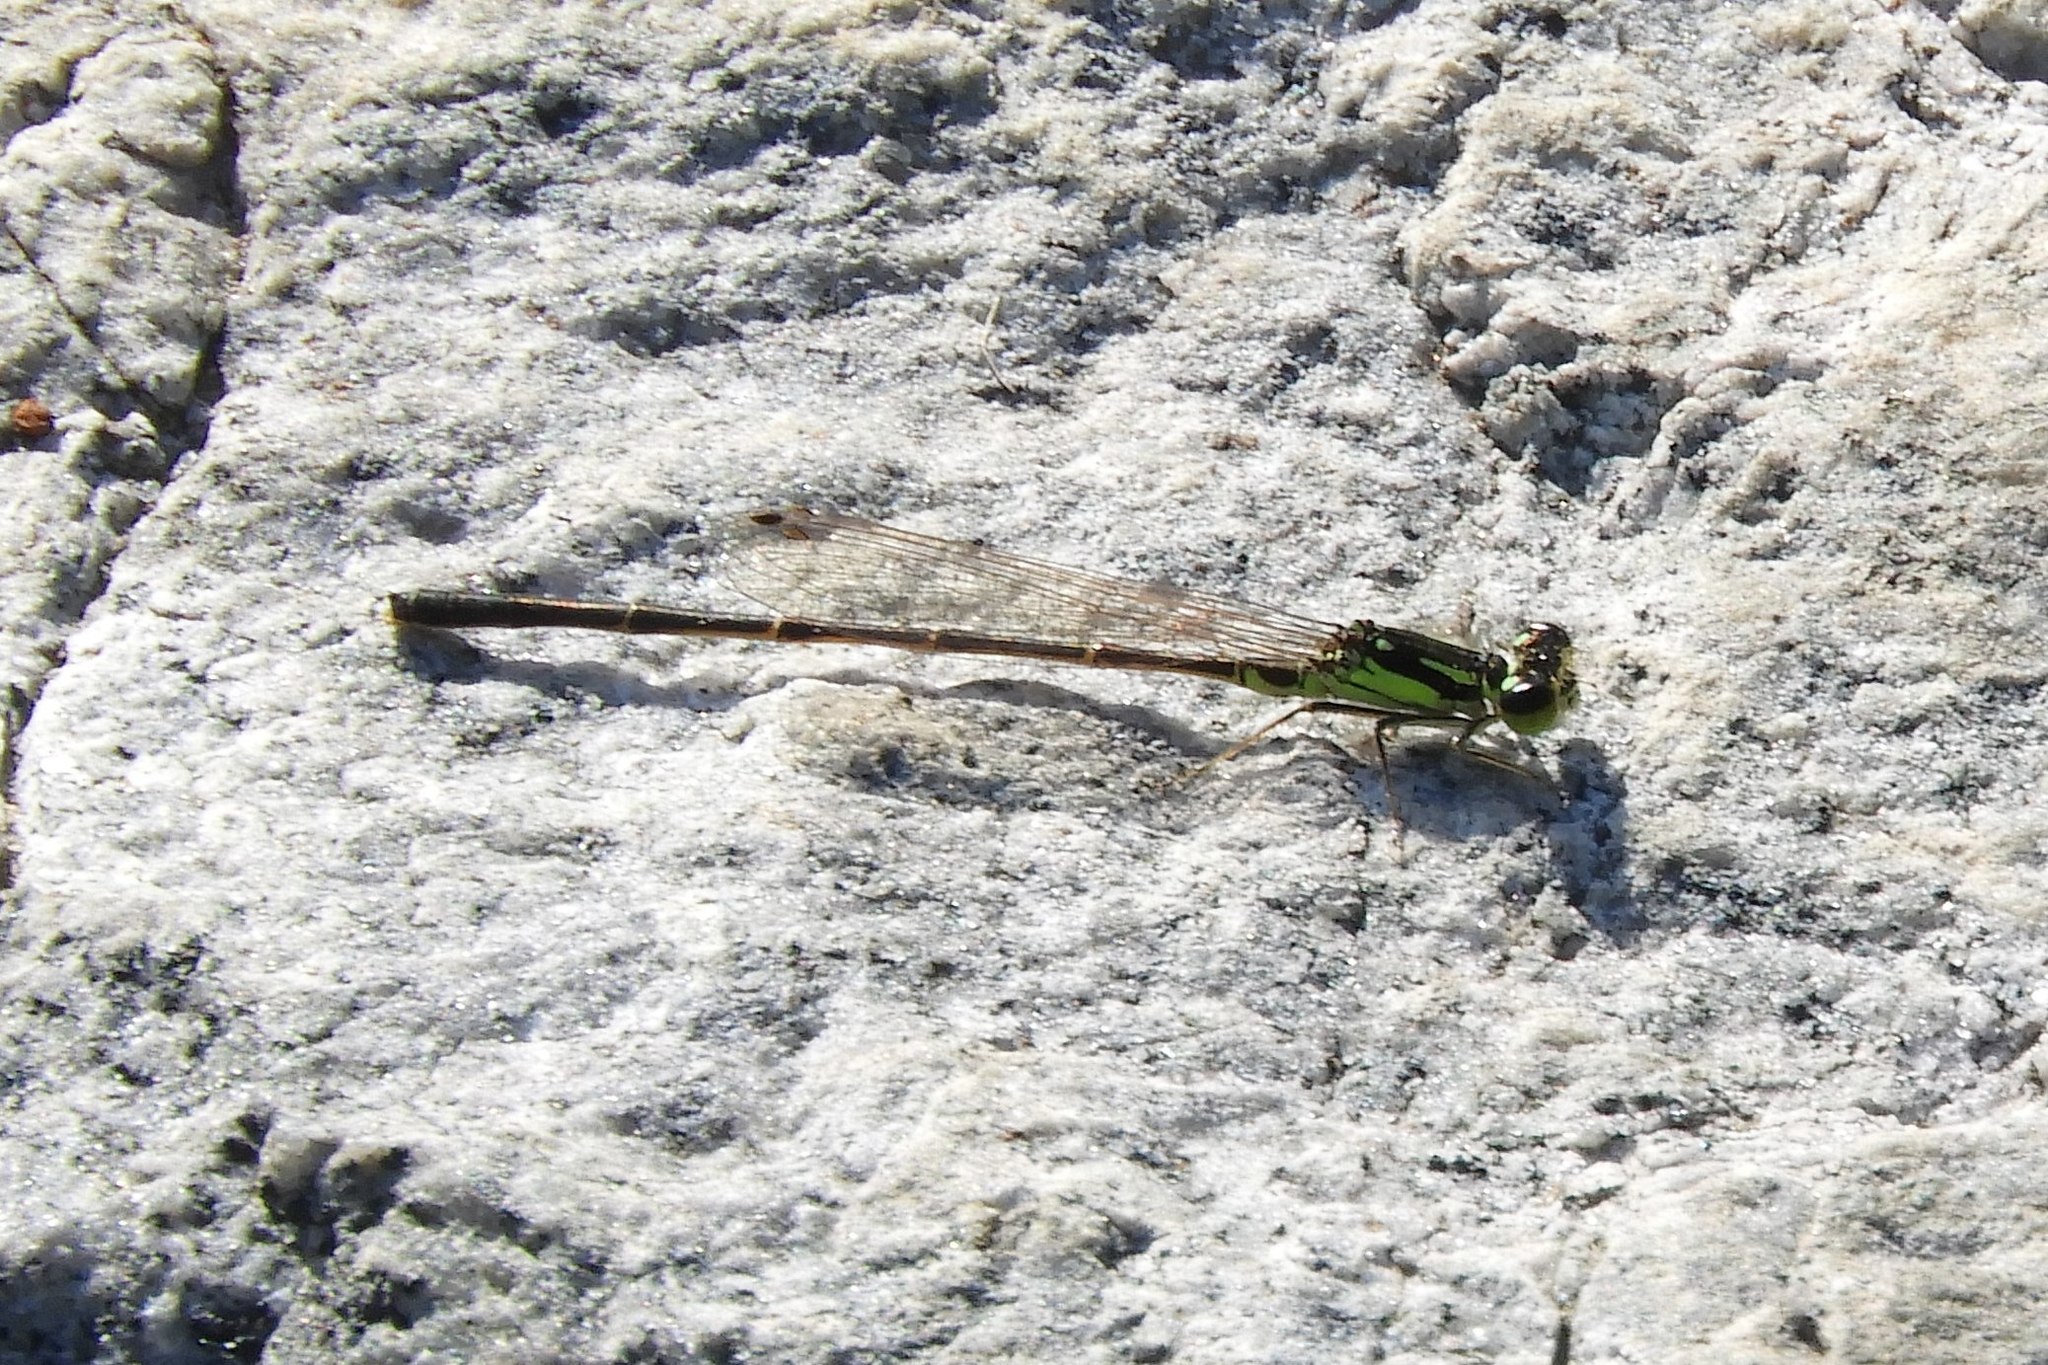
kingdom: Animalia
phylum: Arthropoda
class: Insecta
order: Odonata
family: Coenagrionidae
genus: Ischnura
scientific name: Ischnura posita
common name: Fragile forktail
